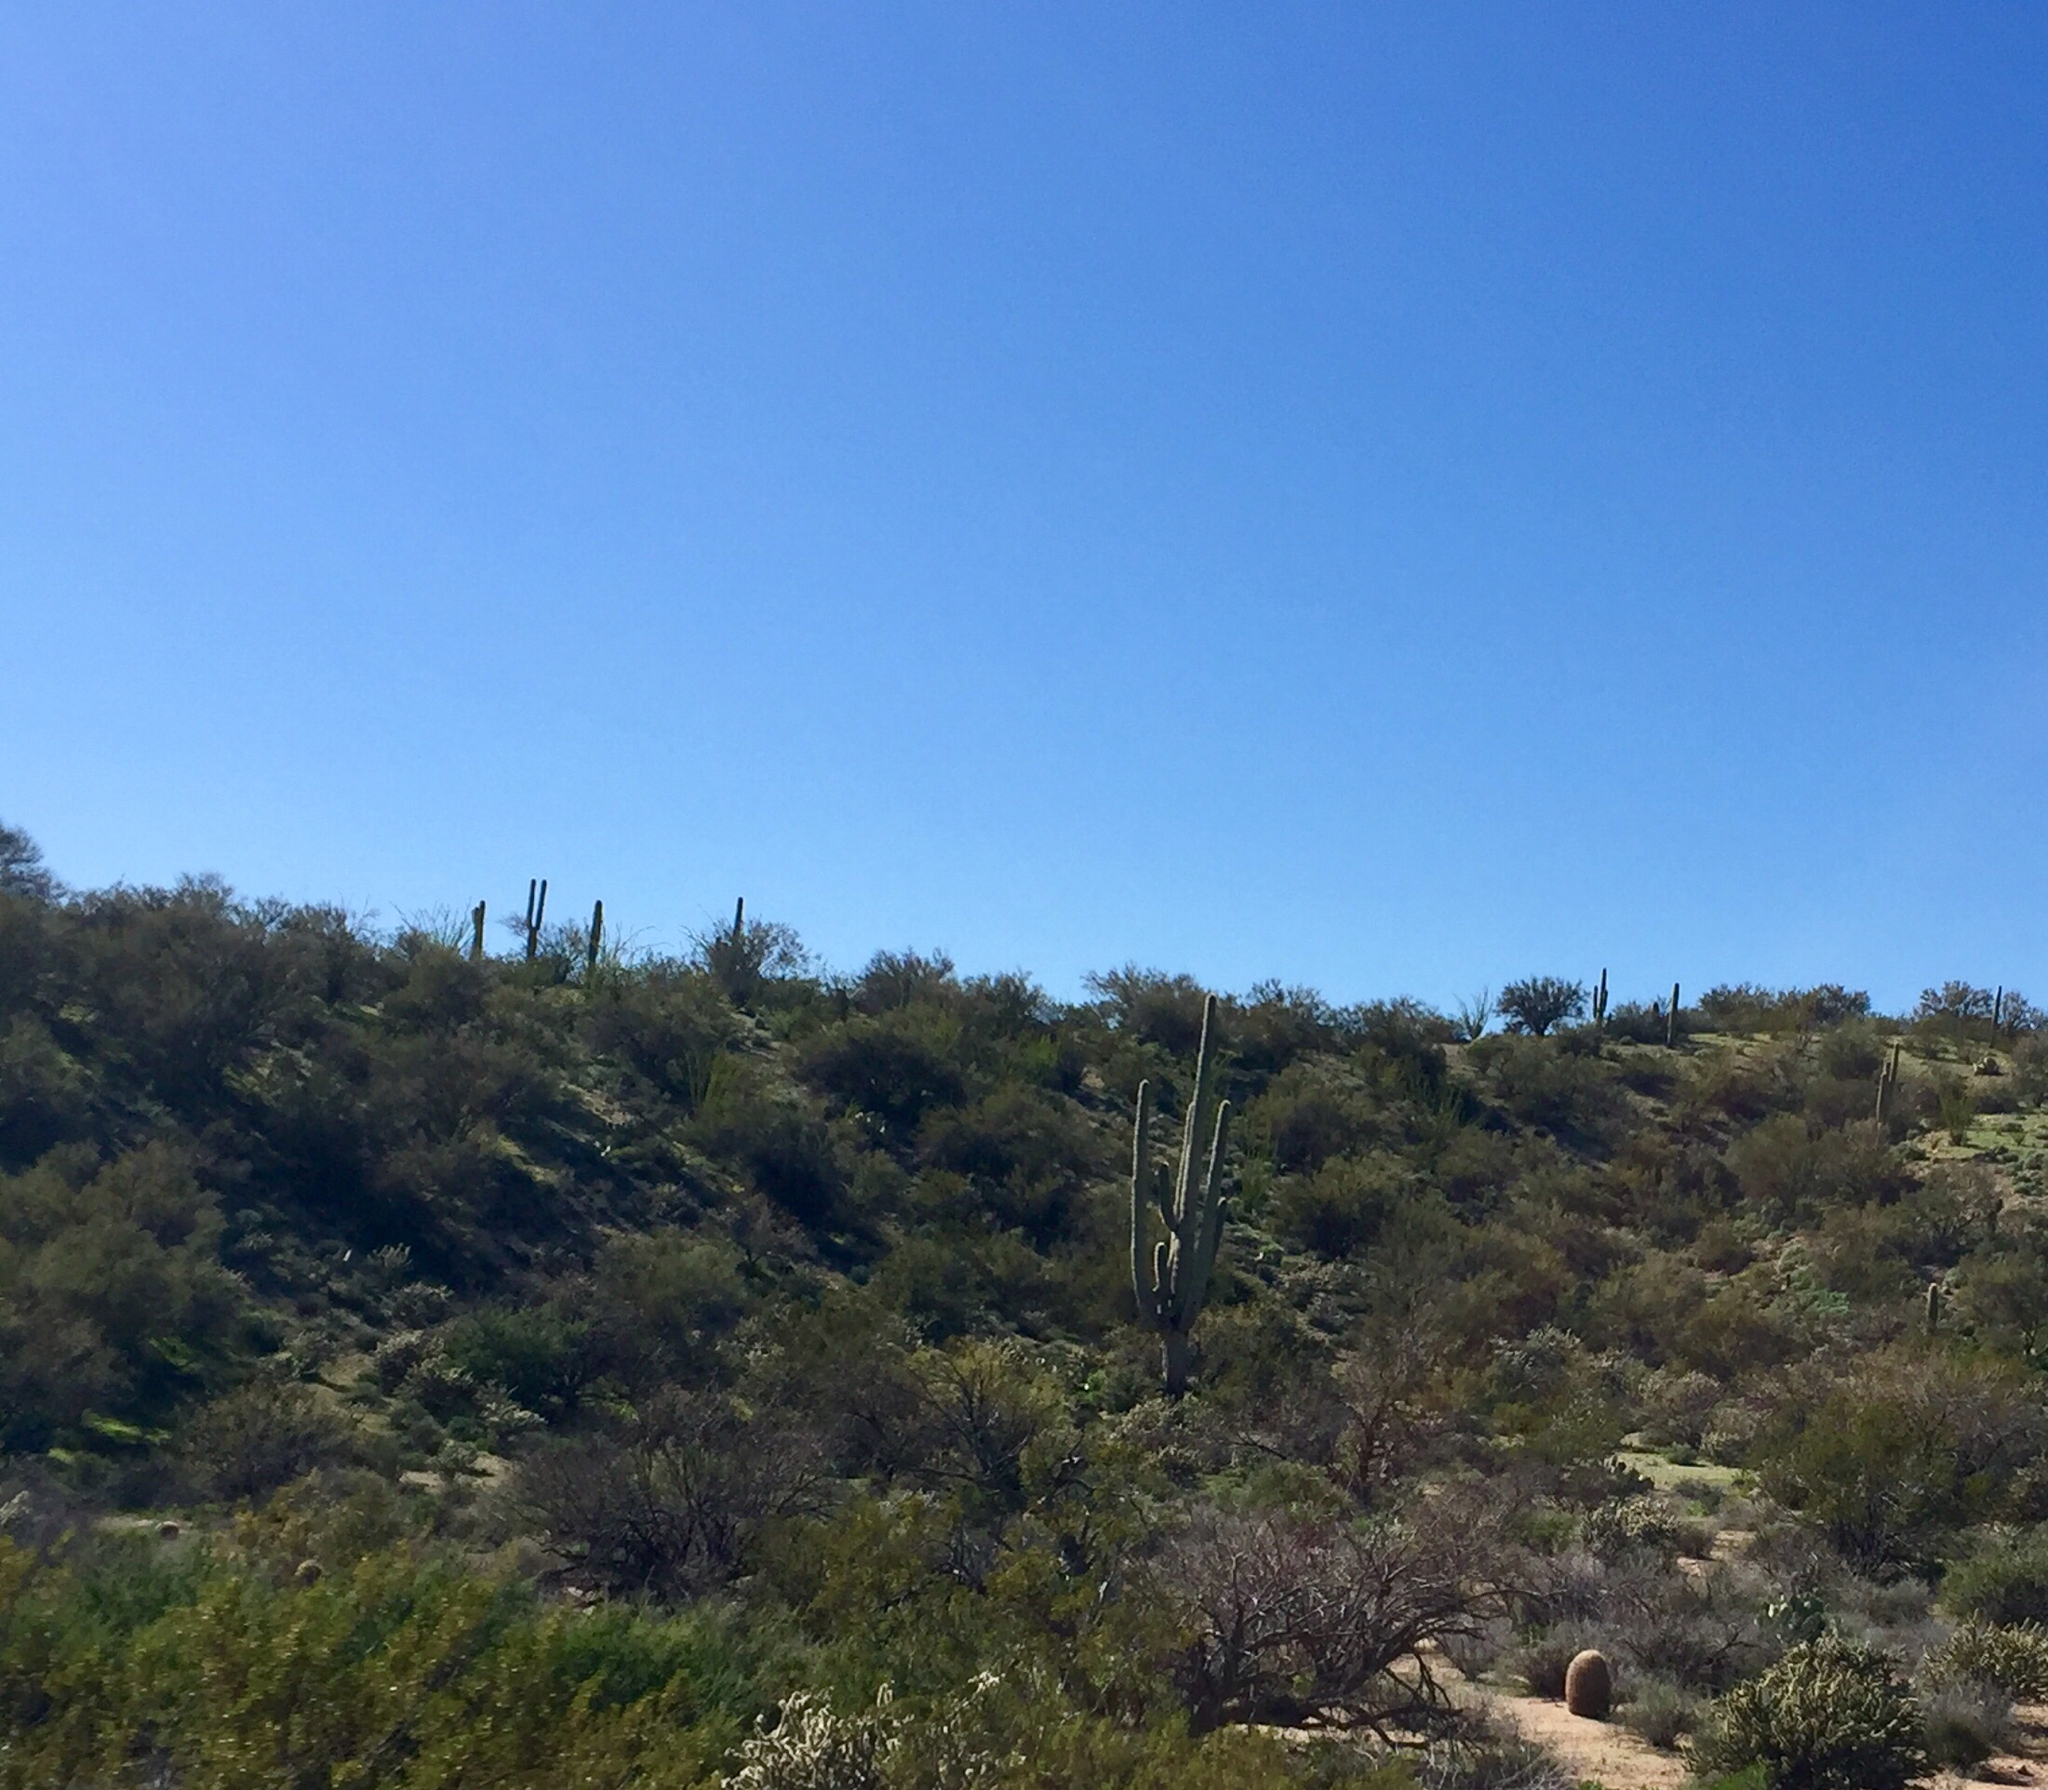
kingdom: Plantae
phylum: Tracheophyta
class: Magnoliopsida
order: Caryophyllales
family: Cactaceae
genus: Carnegiea
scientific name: Carnegiea gigantea
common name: Saguaro
